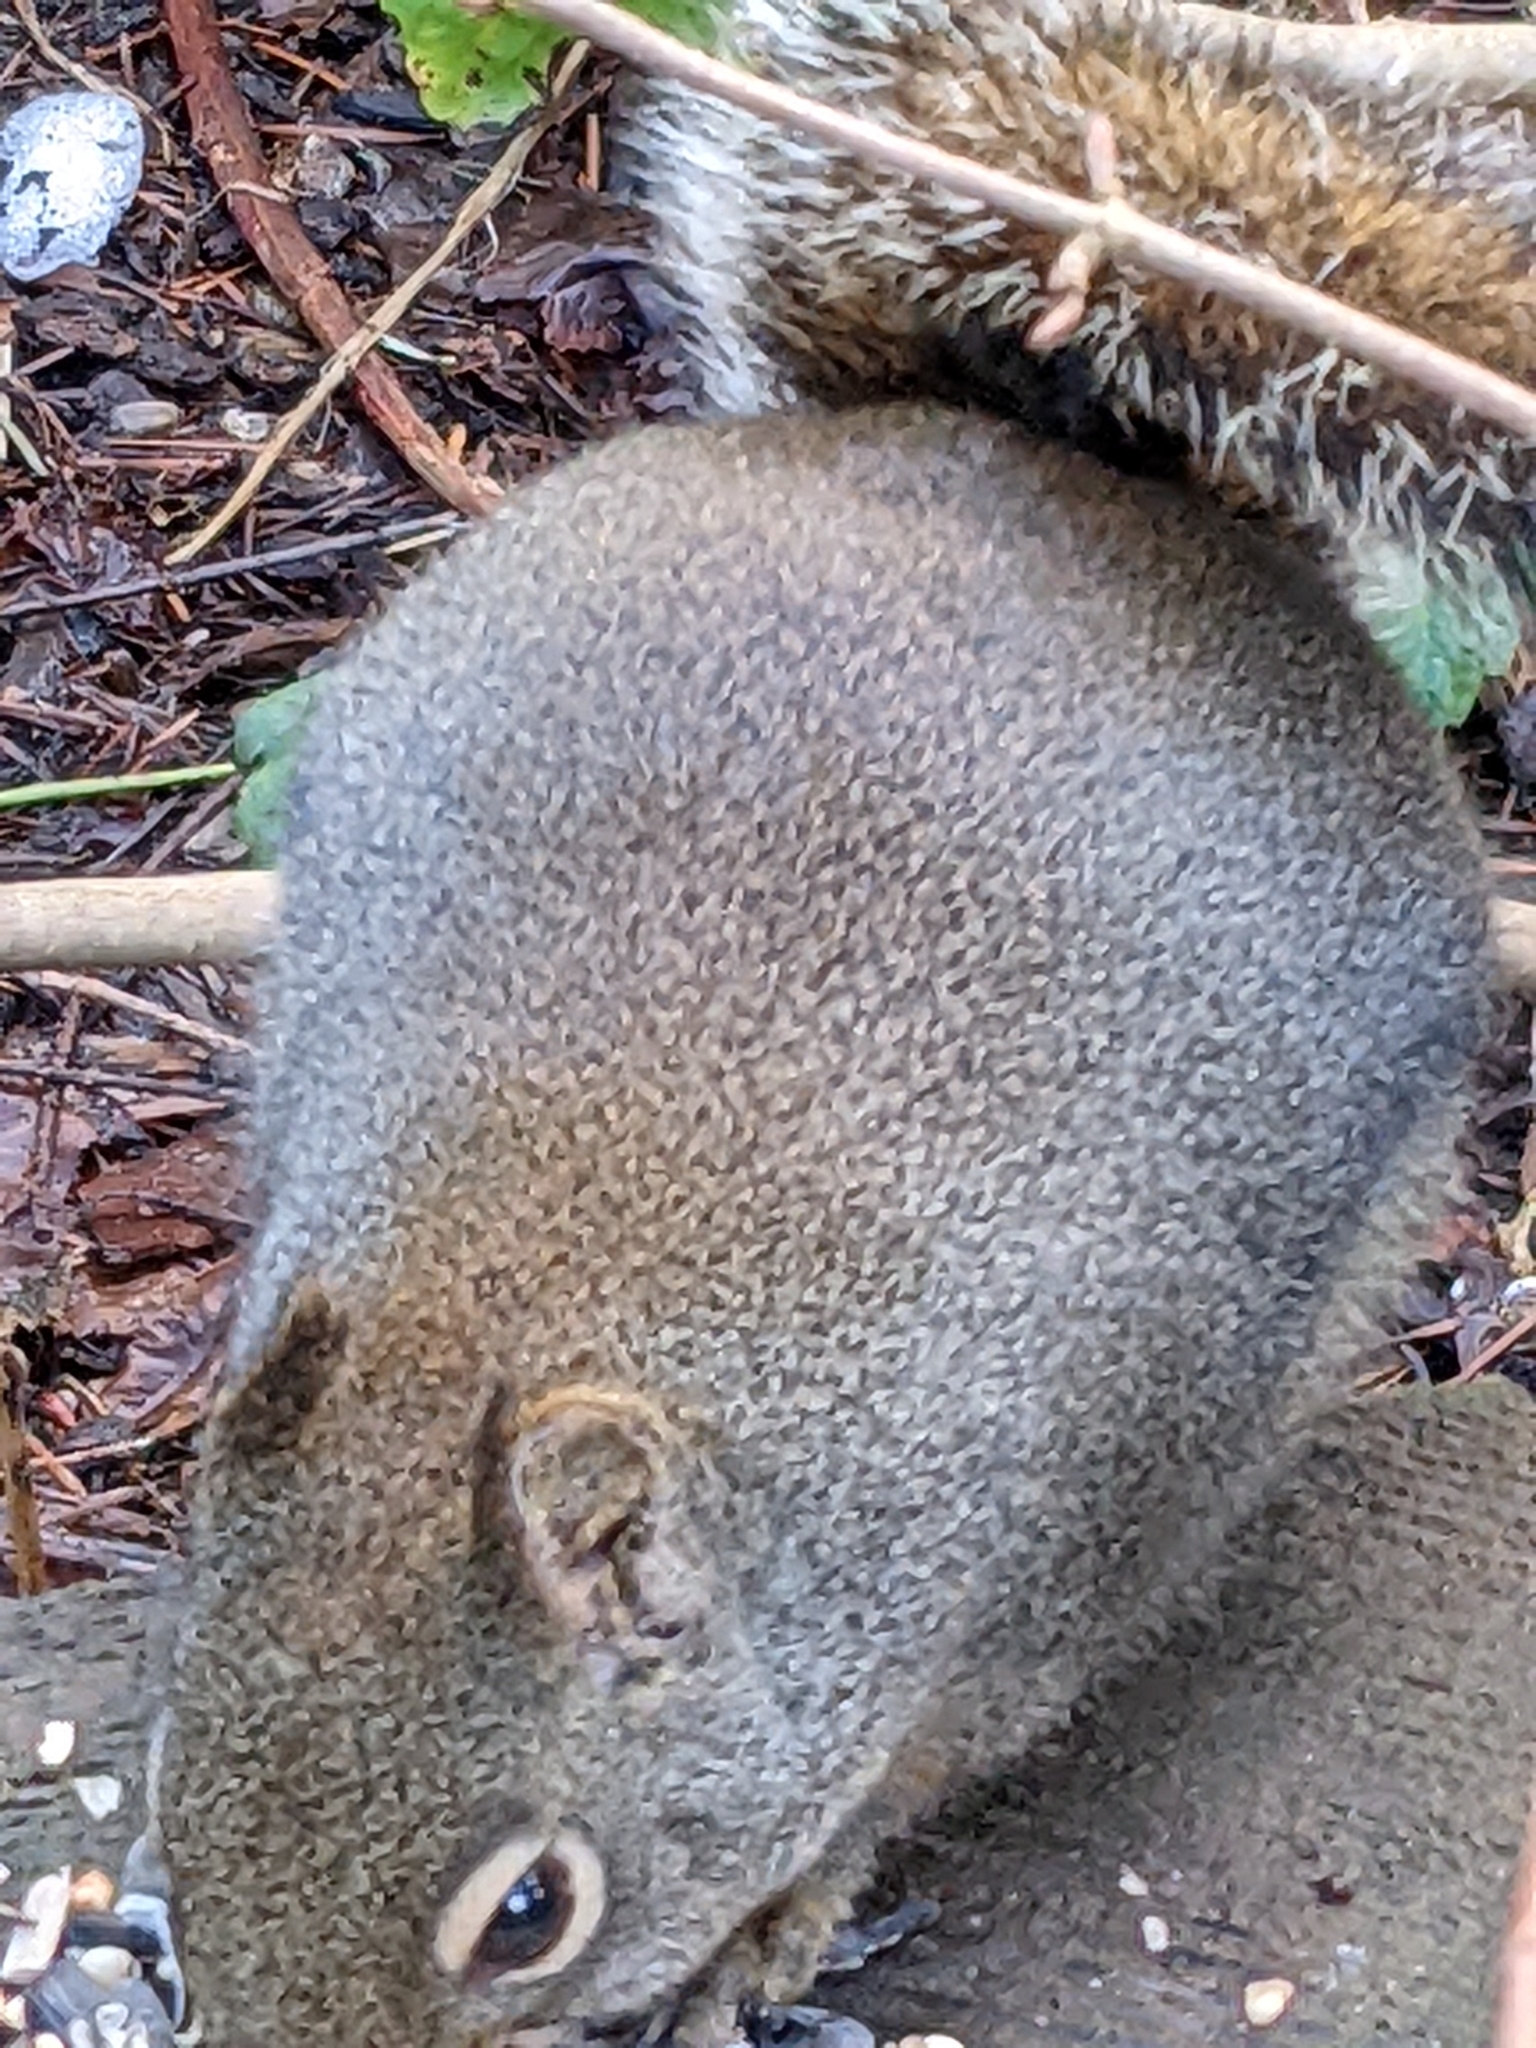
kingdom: Animalia
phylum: Chordata
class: Mammalia
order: Rodentia
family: Sciuridae
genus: Tamiasciurus
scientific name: Tamiasciurus douglasii
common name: Douglas's squirrel
